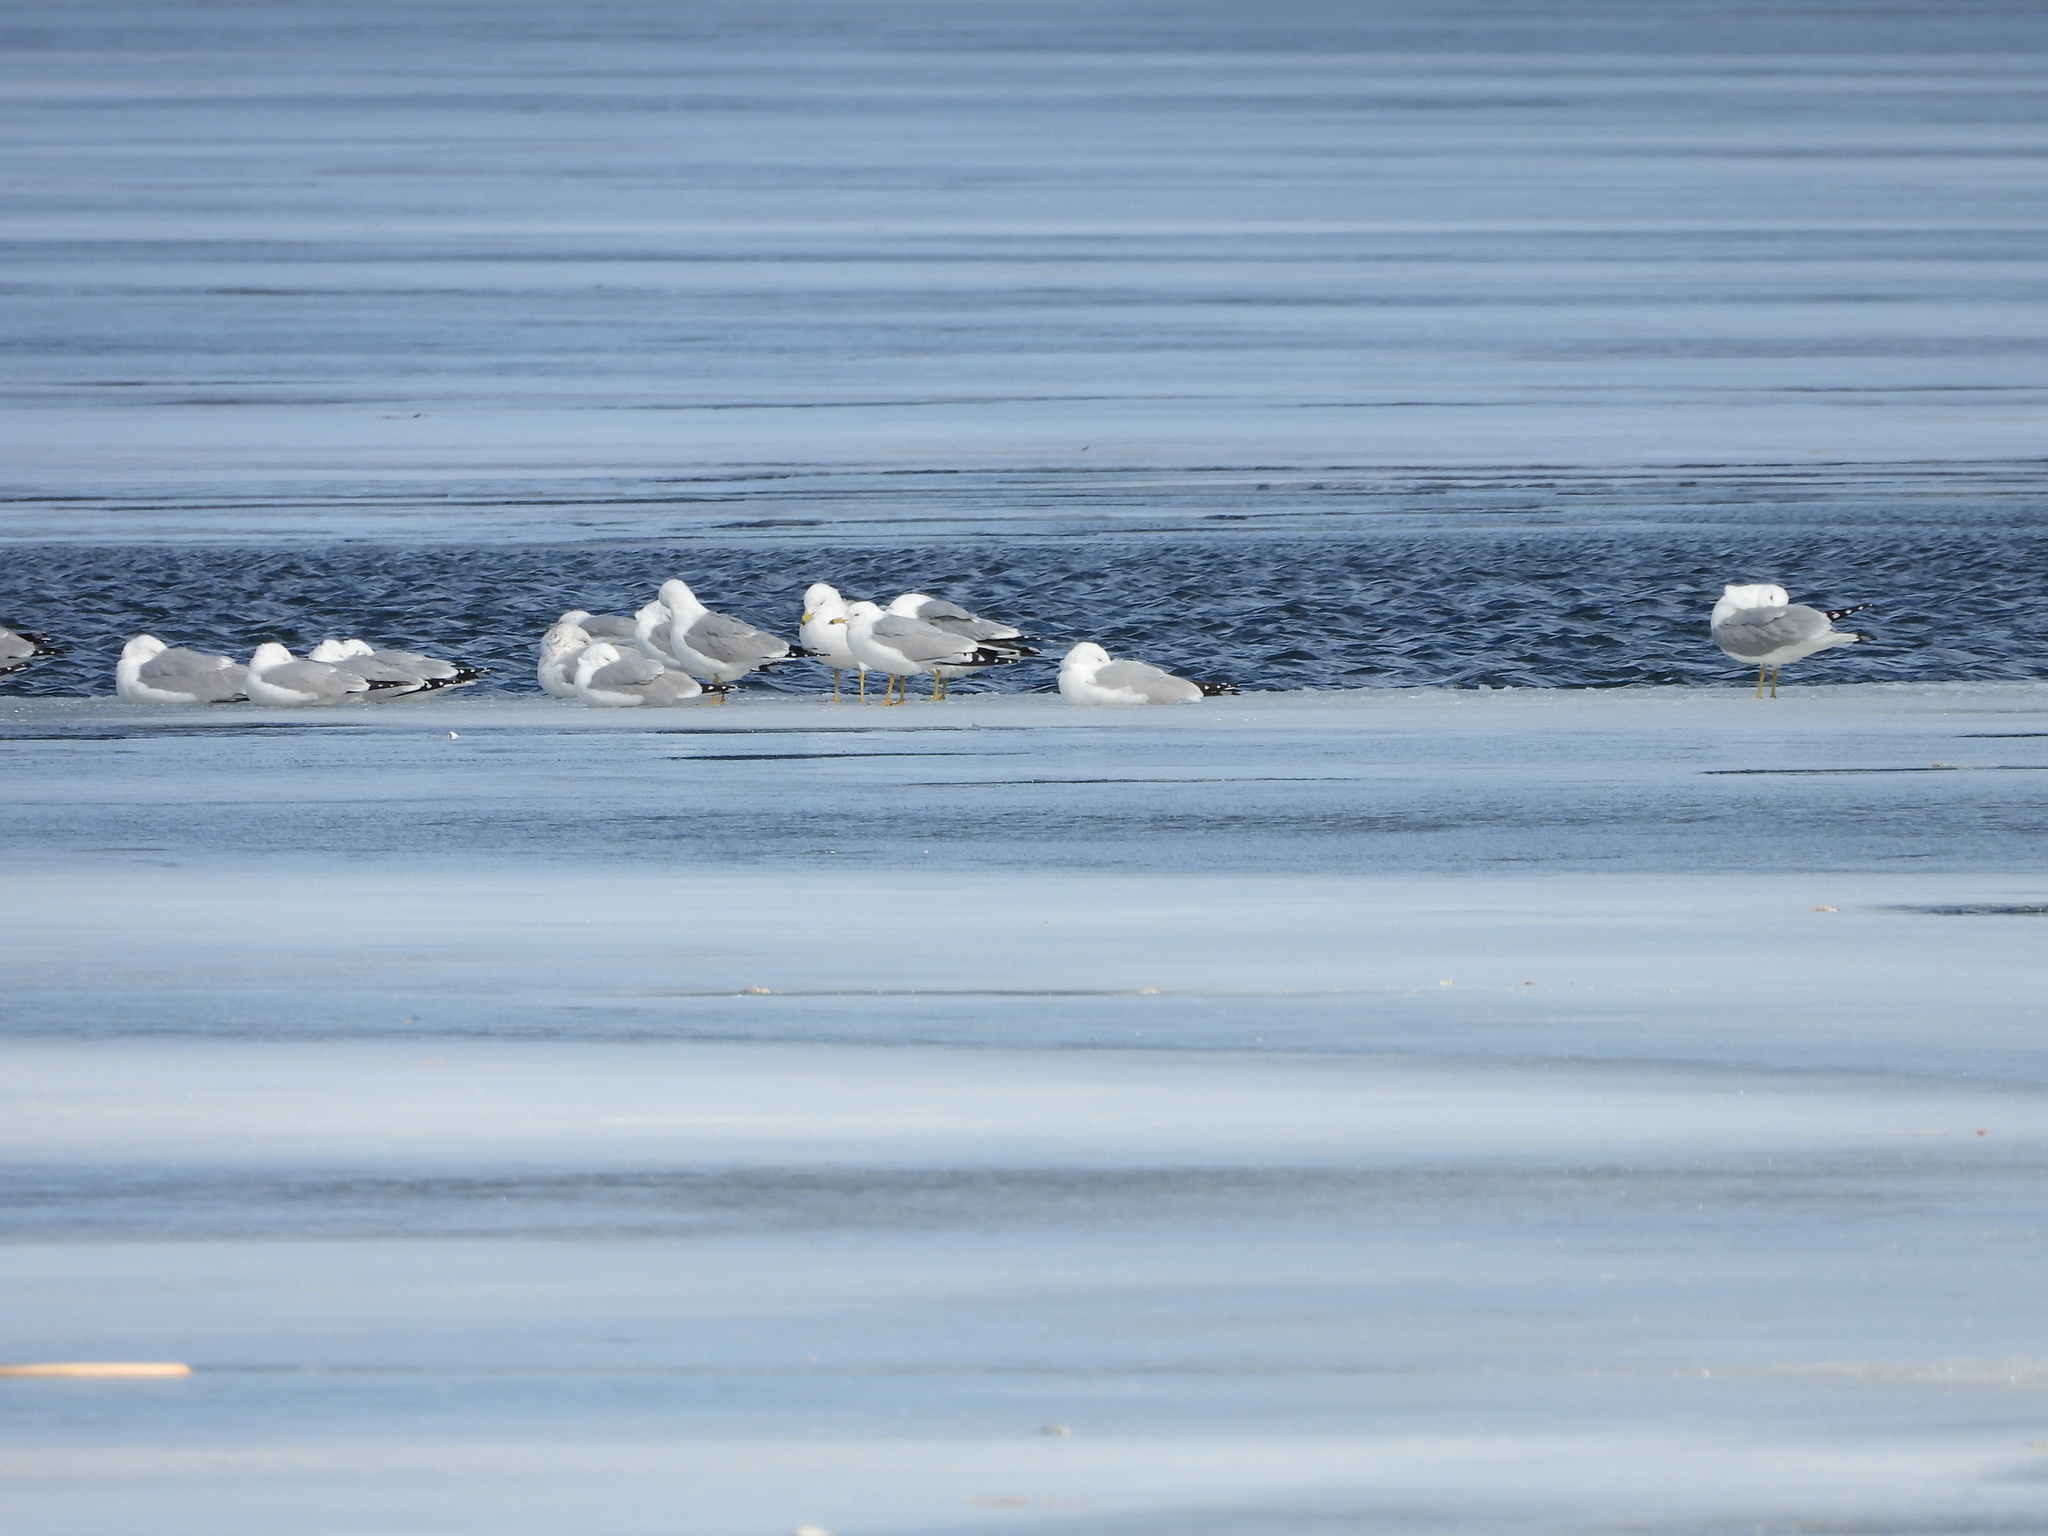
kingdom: Animalia
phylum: Chordata
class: Aves
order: Charadriiformes
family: Laridae
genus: Larus
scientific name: Larus delawarensis
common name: Ring-billed gull
